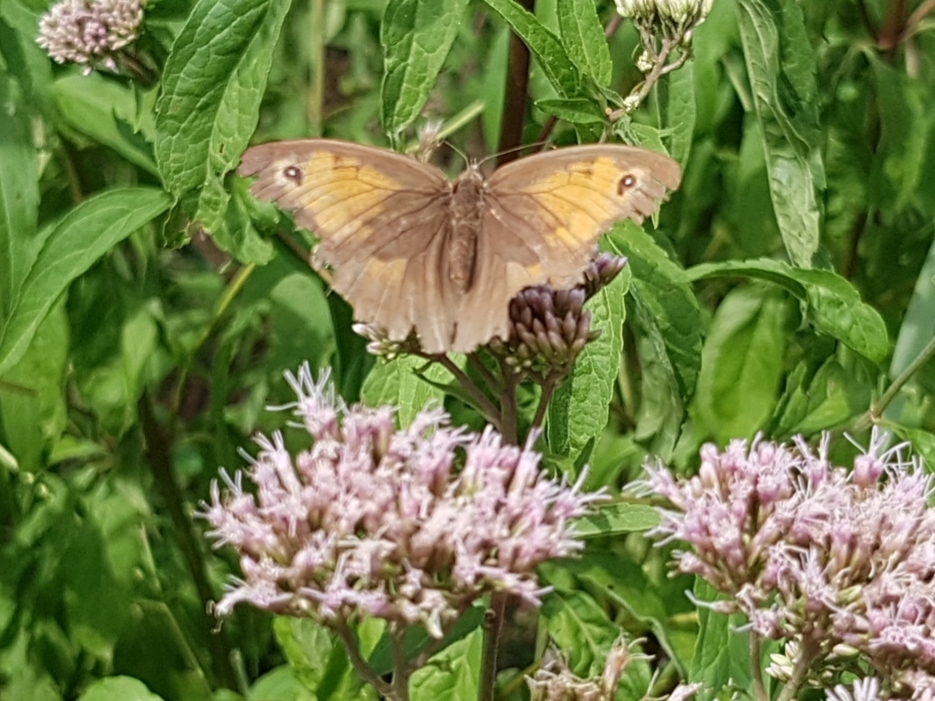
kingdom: Animalia
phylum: Arthropoda
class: Insecta
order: Lepidoptera
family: Nymphalidae
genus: Maniola
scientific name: Maniola jurtina
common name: Meadow brown
